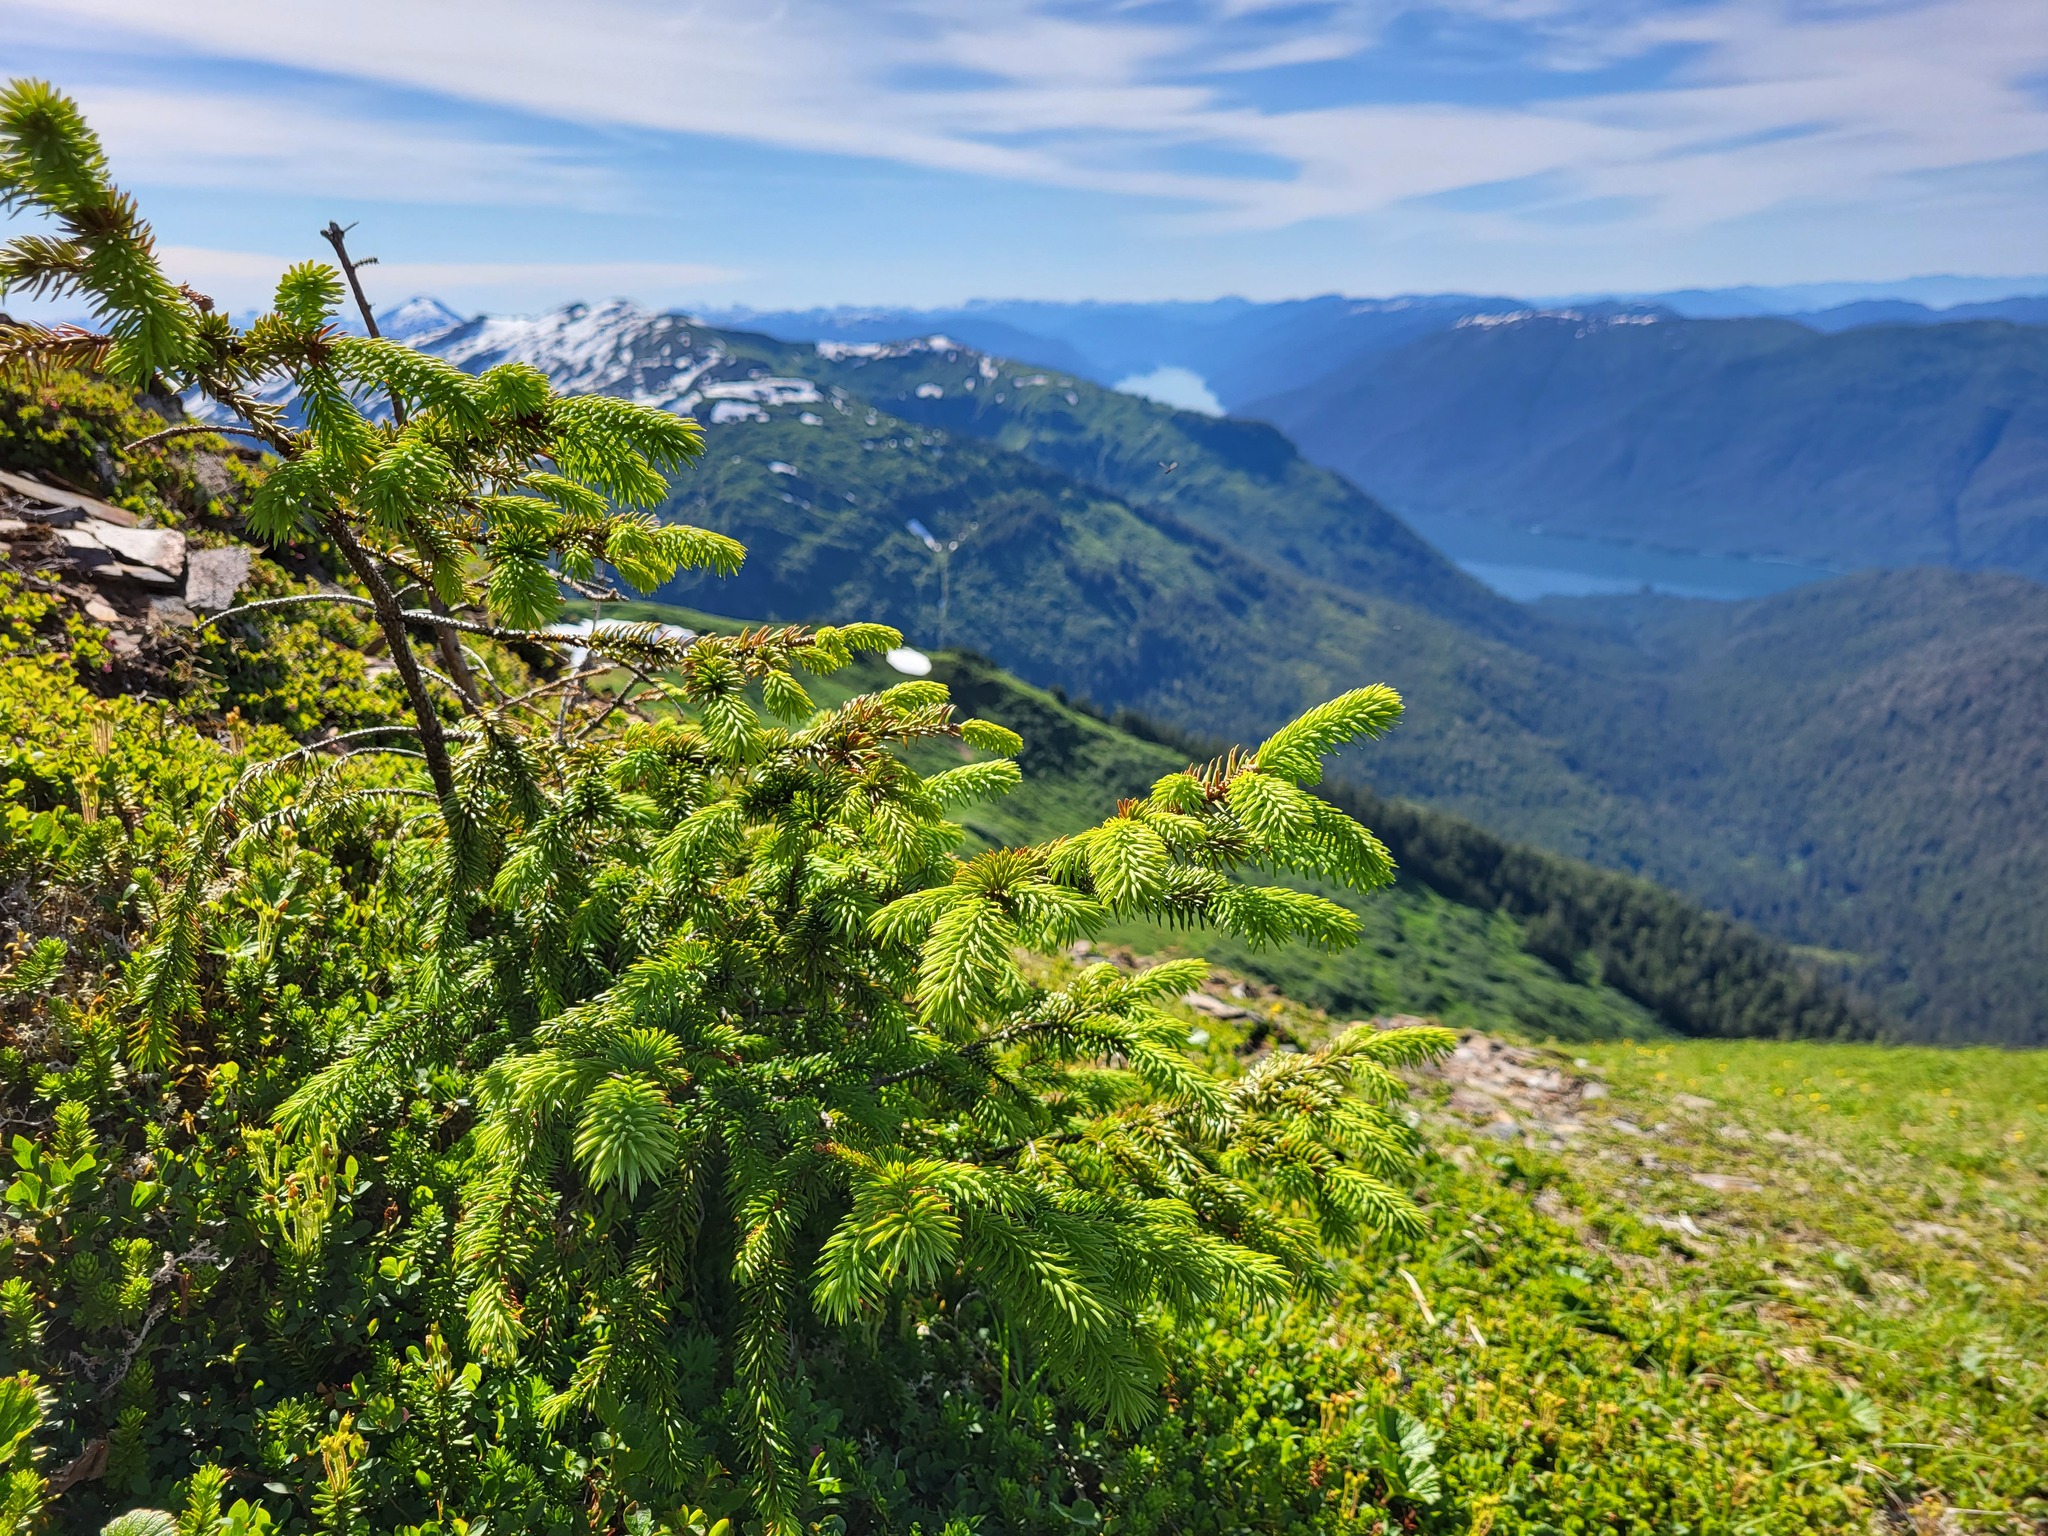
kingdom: Plantae
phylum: Tracheophyta
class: Pinopsida
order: Pinales
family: Pinaceae
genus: Picea
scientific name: Picea sitchensis
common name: Sitka spruce
